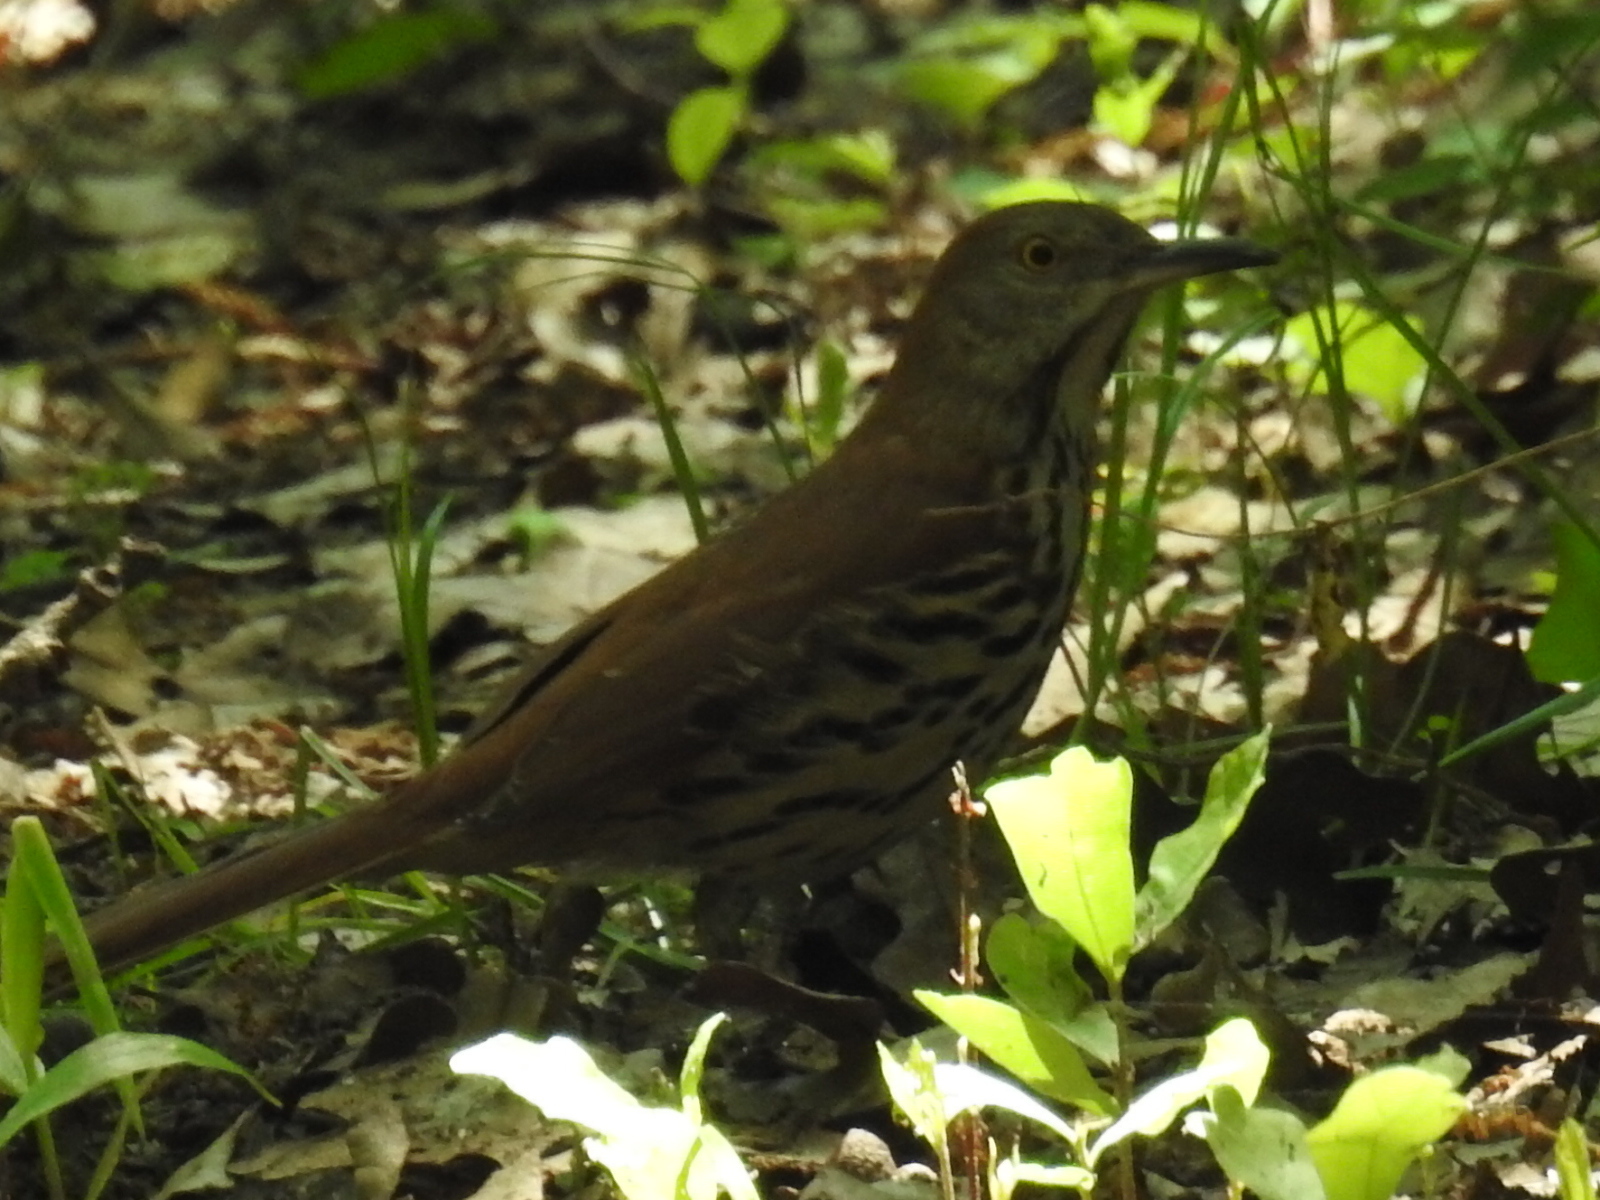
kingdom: Animalia
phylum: Chordata
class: Aves
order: Passeriformes
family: Mimidae
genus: Toxostoma
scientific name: Toxostoma rufum
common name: Brown thrasher
